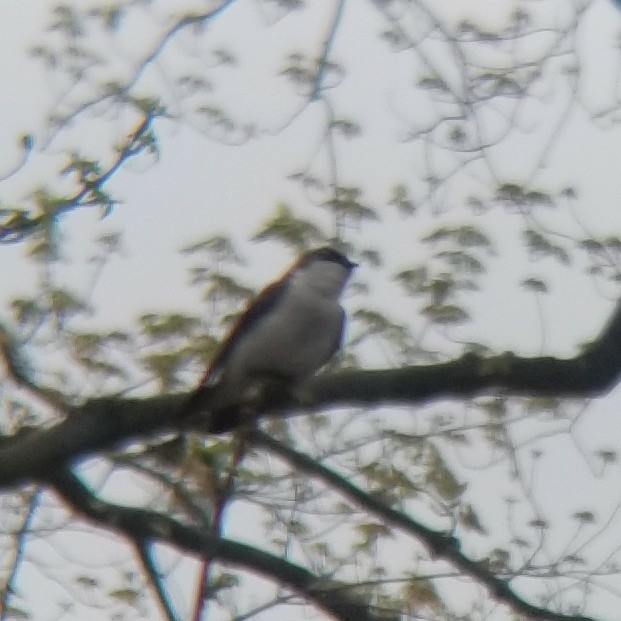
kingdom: Animalia
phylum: Chordata
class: Aves
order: Passeriformes
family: Hirundinidae
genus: Tachycineta
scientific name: Tachycineta bicolor
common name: Tree swallow
